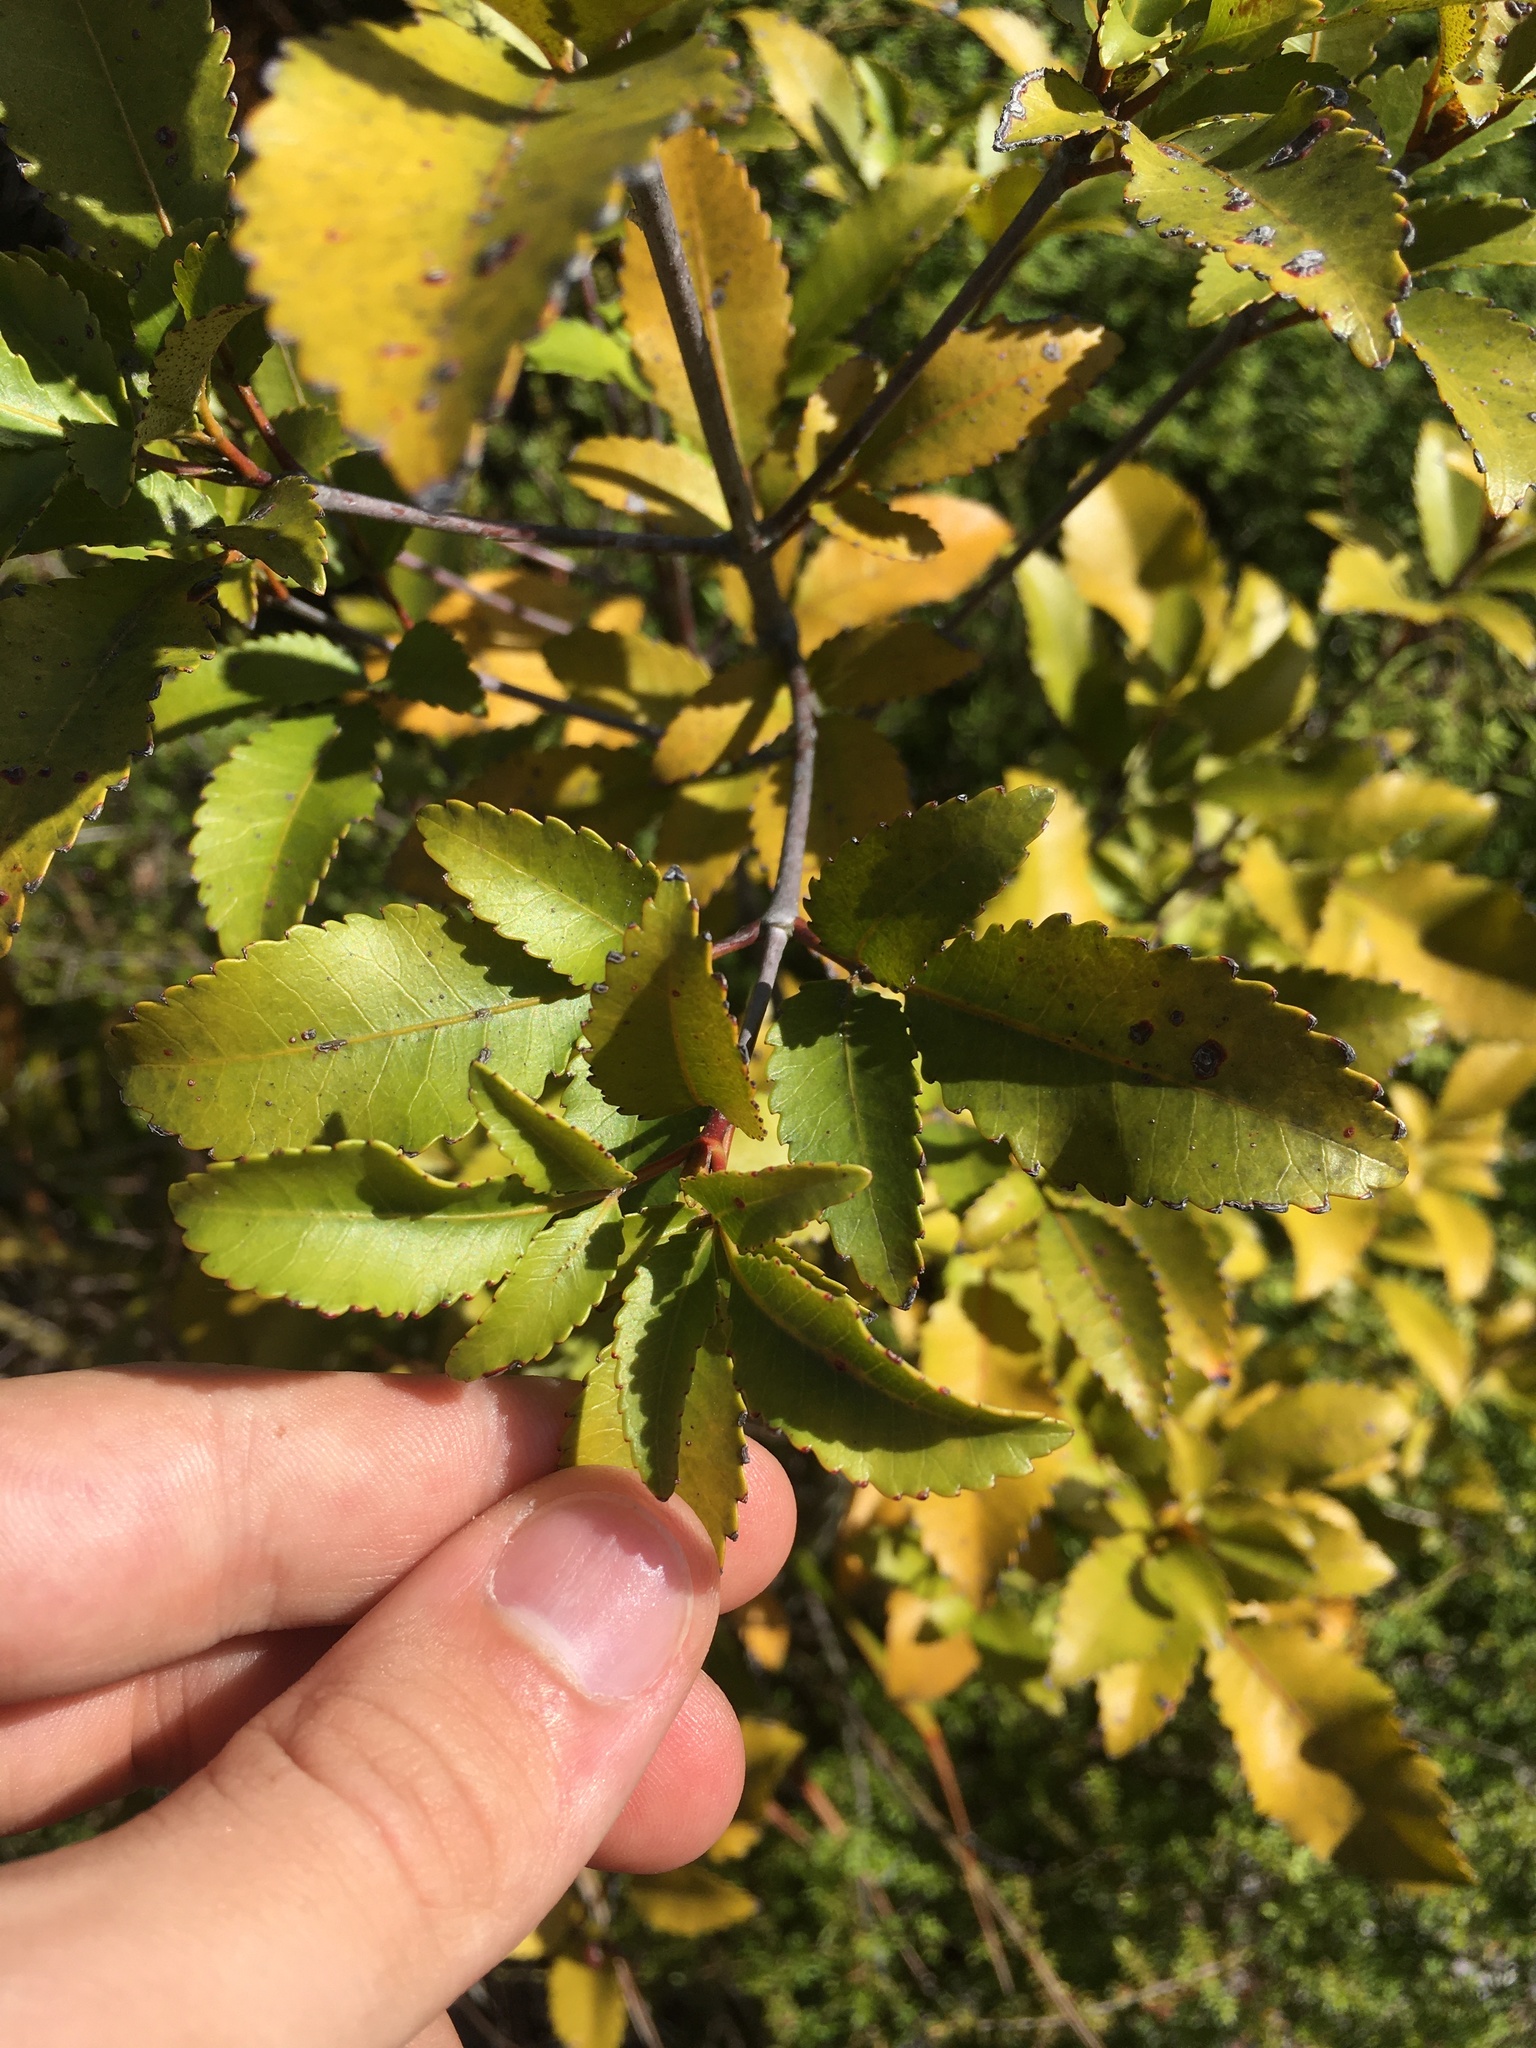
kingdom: Plantae
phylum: Tracheophyta
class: Magnoliopsida
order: Oxalidales
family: Cunoniaceae
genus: Pterophylla
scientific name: Pterophylla racemosa
